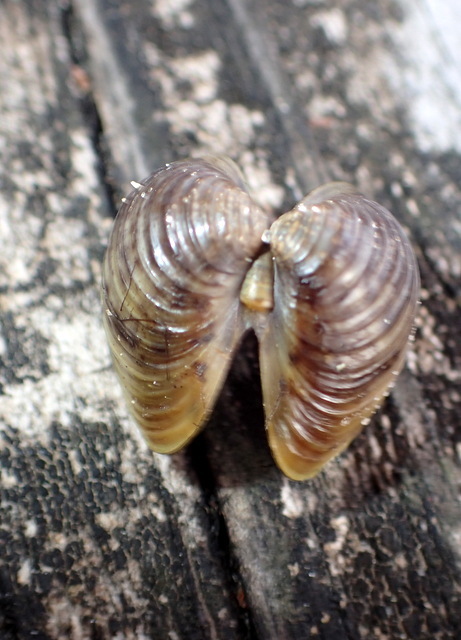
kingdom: Animalia
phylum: Mollusca
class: Bivalvia
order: Venerida
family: Cyrenidae
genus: Corbicula
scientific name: Corbicula fluminea
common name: Asian clam
